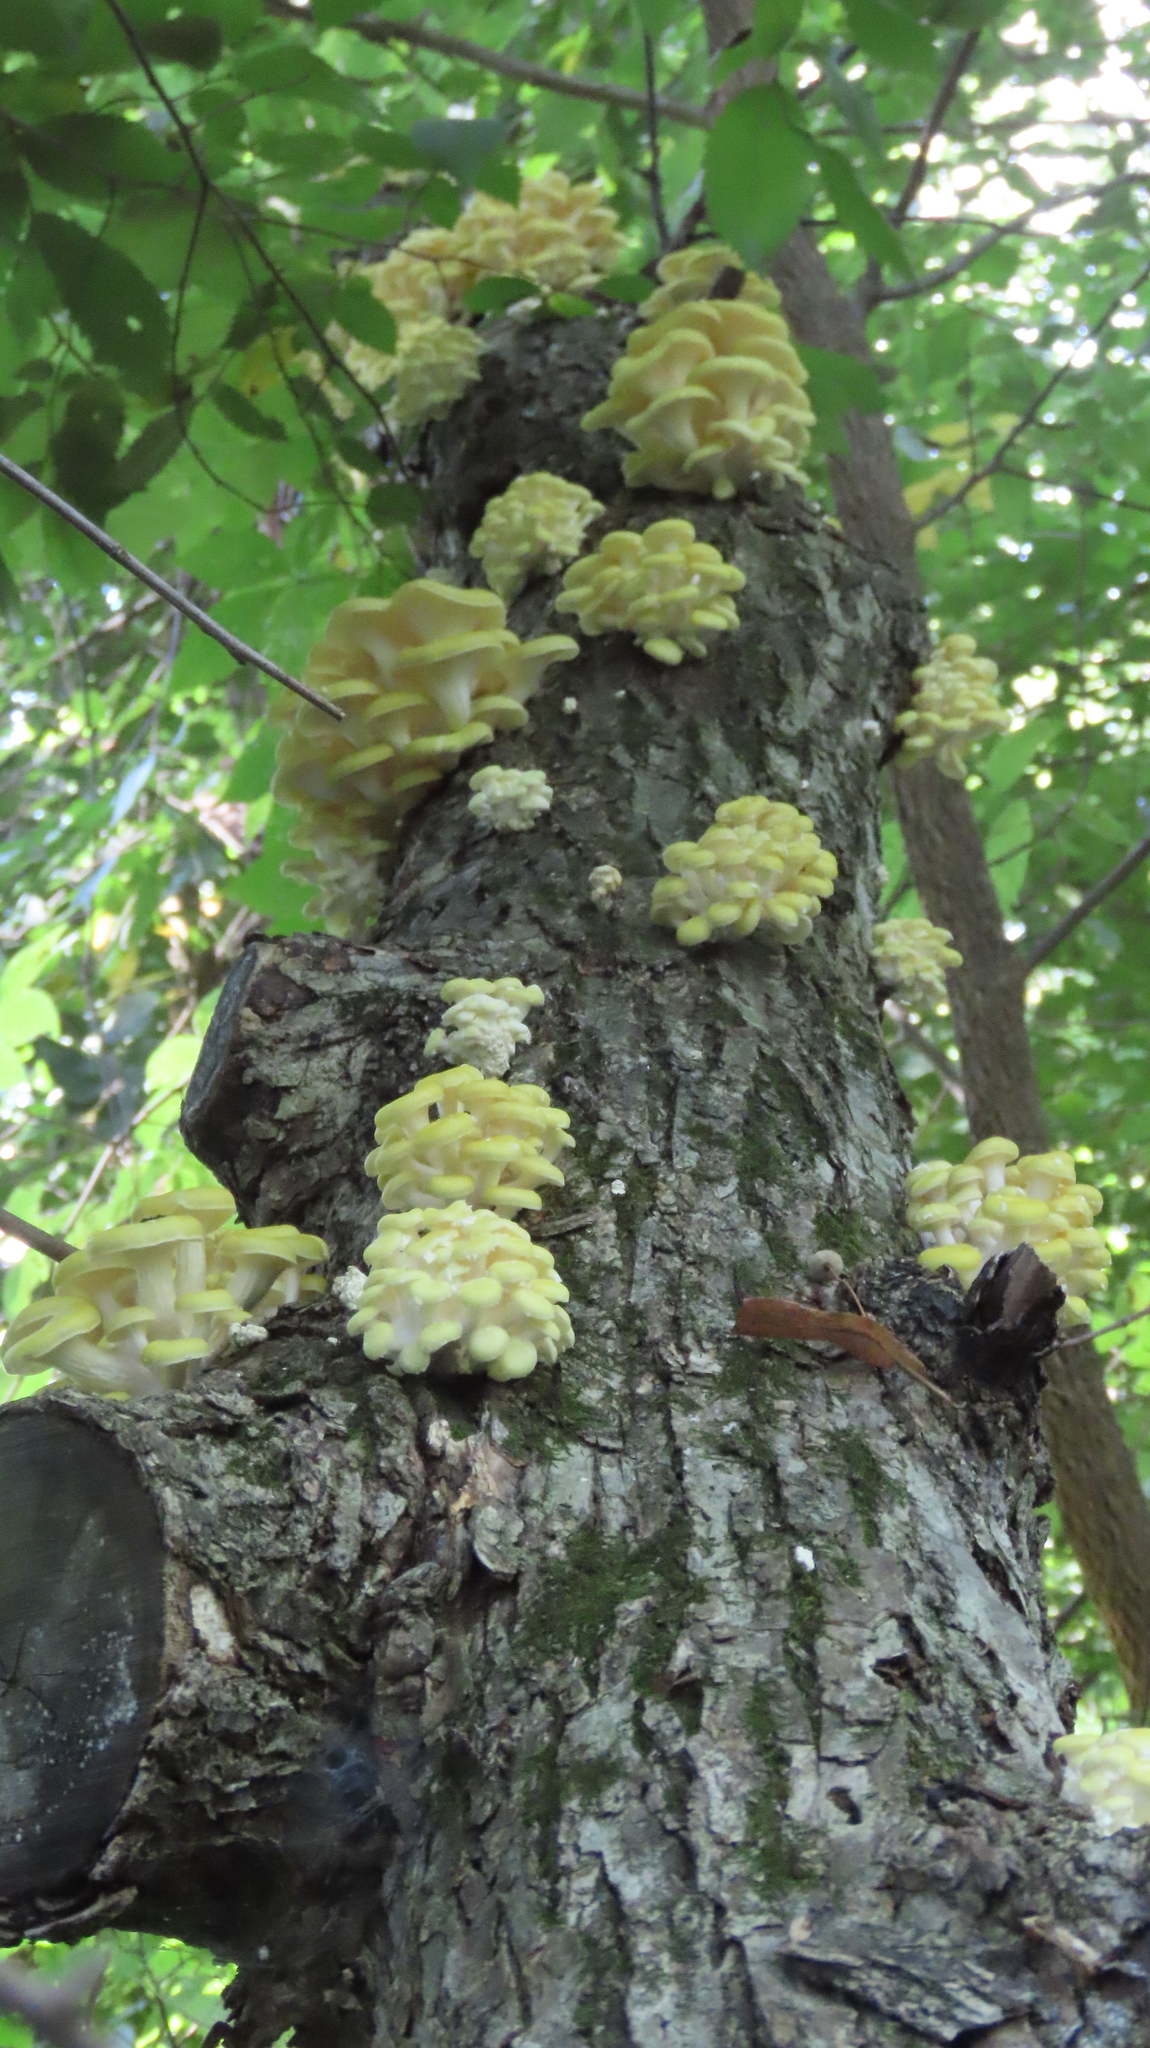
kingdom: Fungi
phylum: Basidiomycota
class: Agaricomycetes
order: Agaricales
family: Pleurotaceae
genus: Pleurotus
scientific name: Pleurotus citrinopileatus
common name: Golden oyster mushroom
